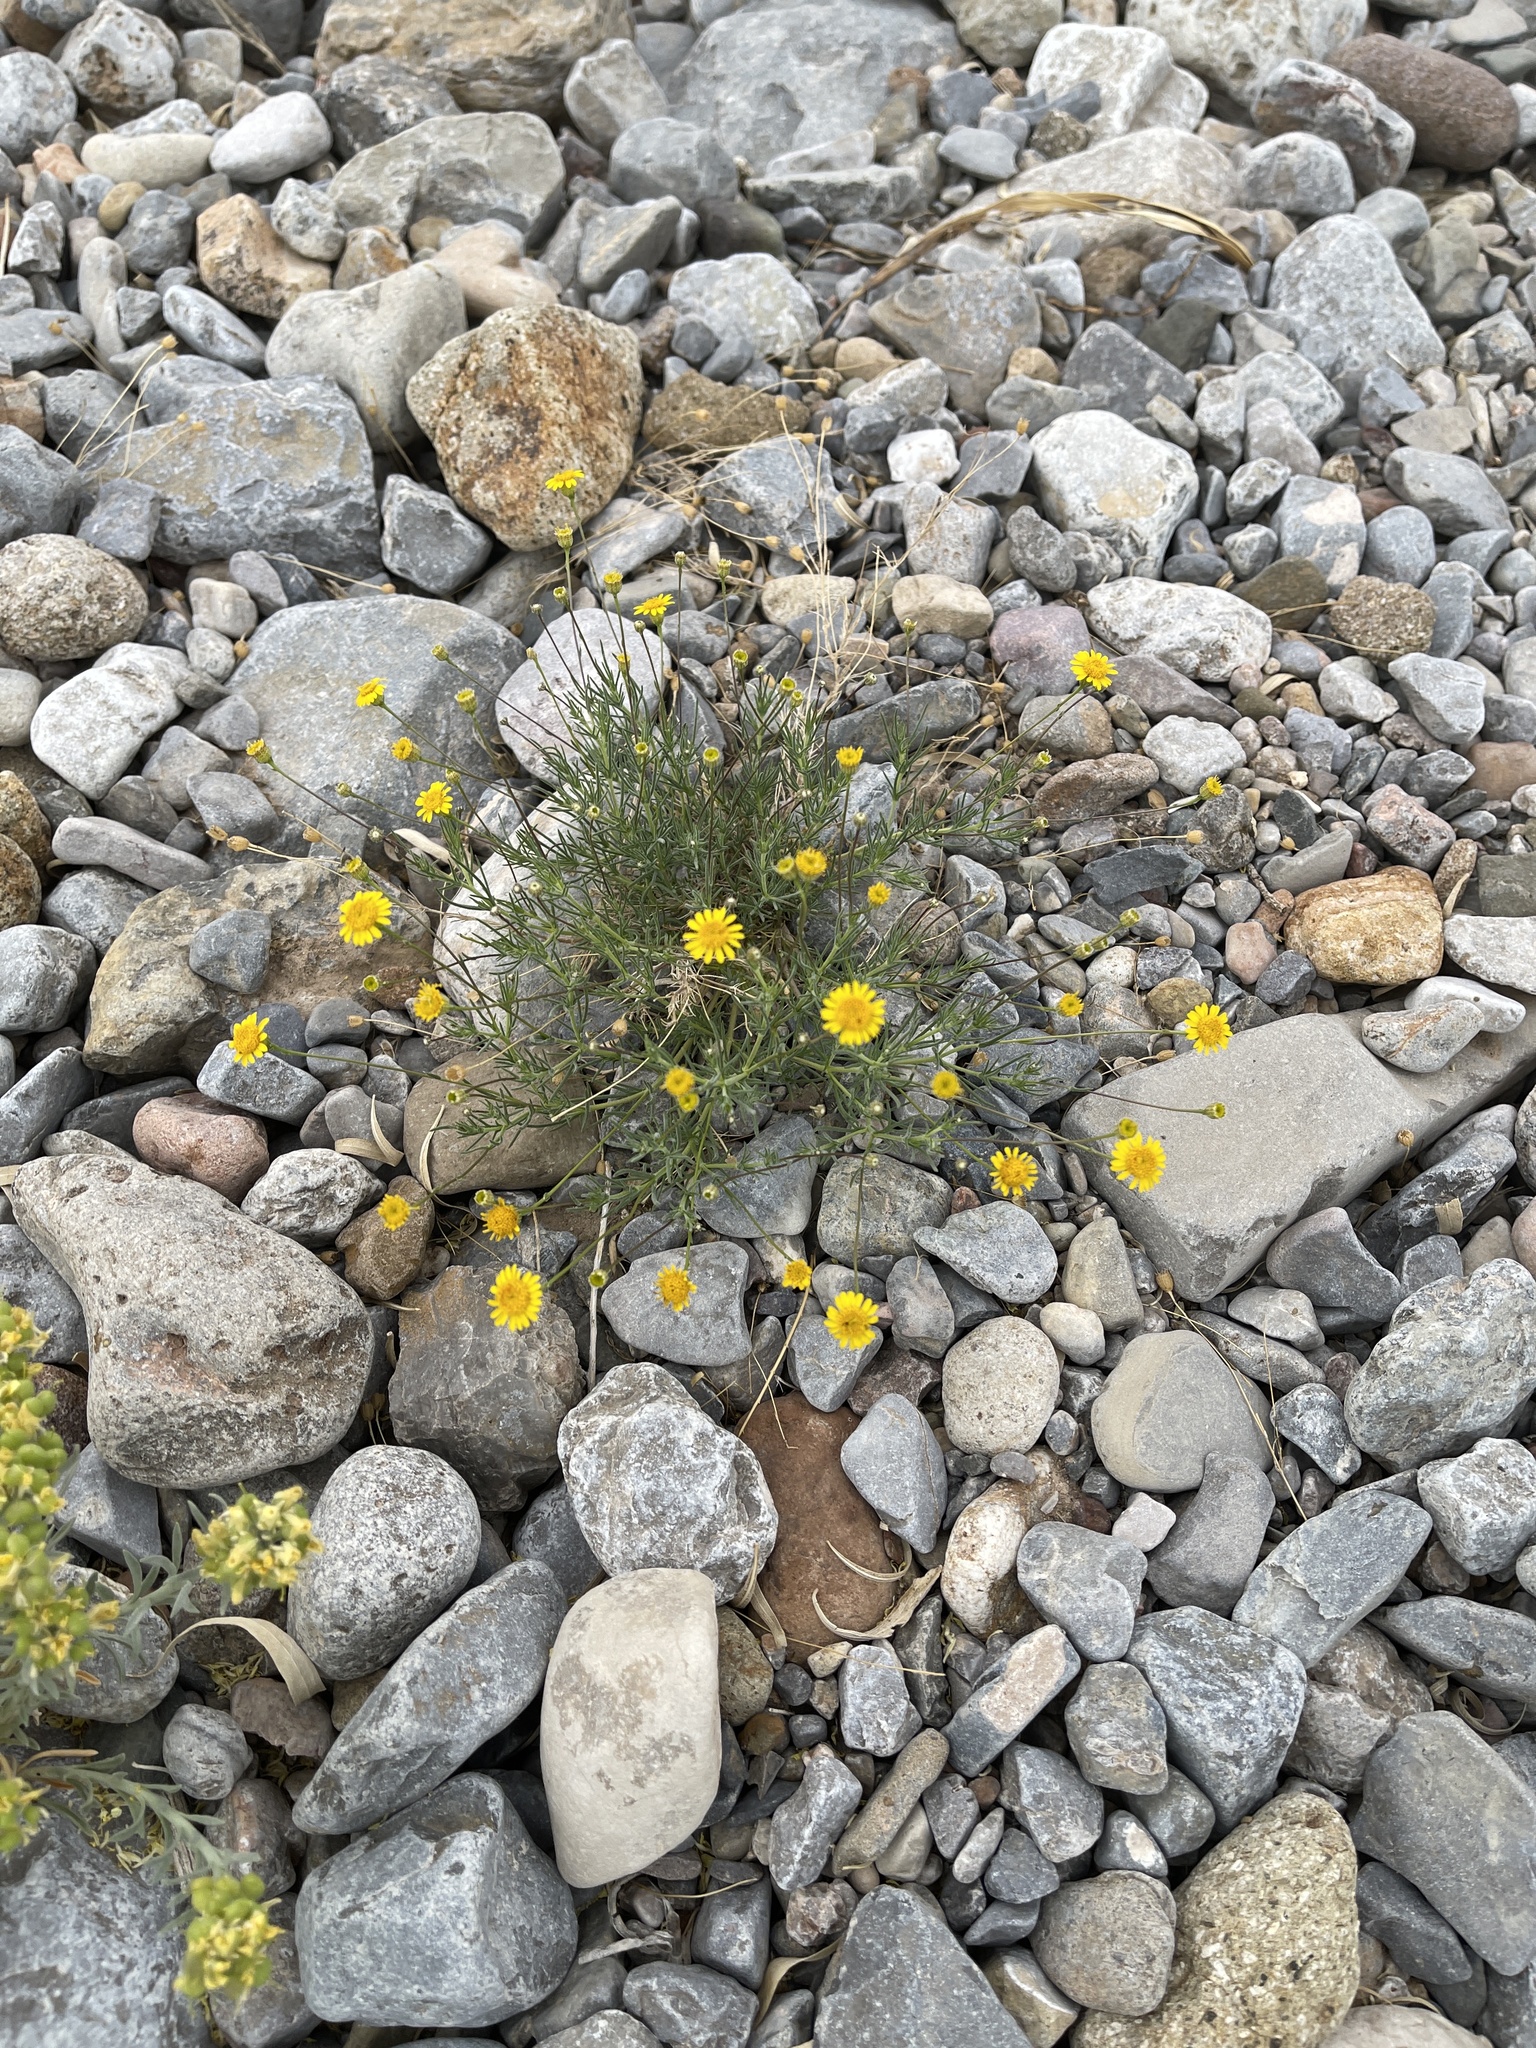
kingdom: Plantae
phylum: Tracheophyta
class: Magnoliopsida
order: Asterales
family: Asteraceae
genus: Thymophylla
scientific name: Thymophylla pentachaeta
